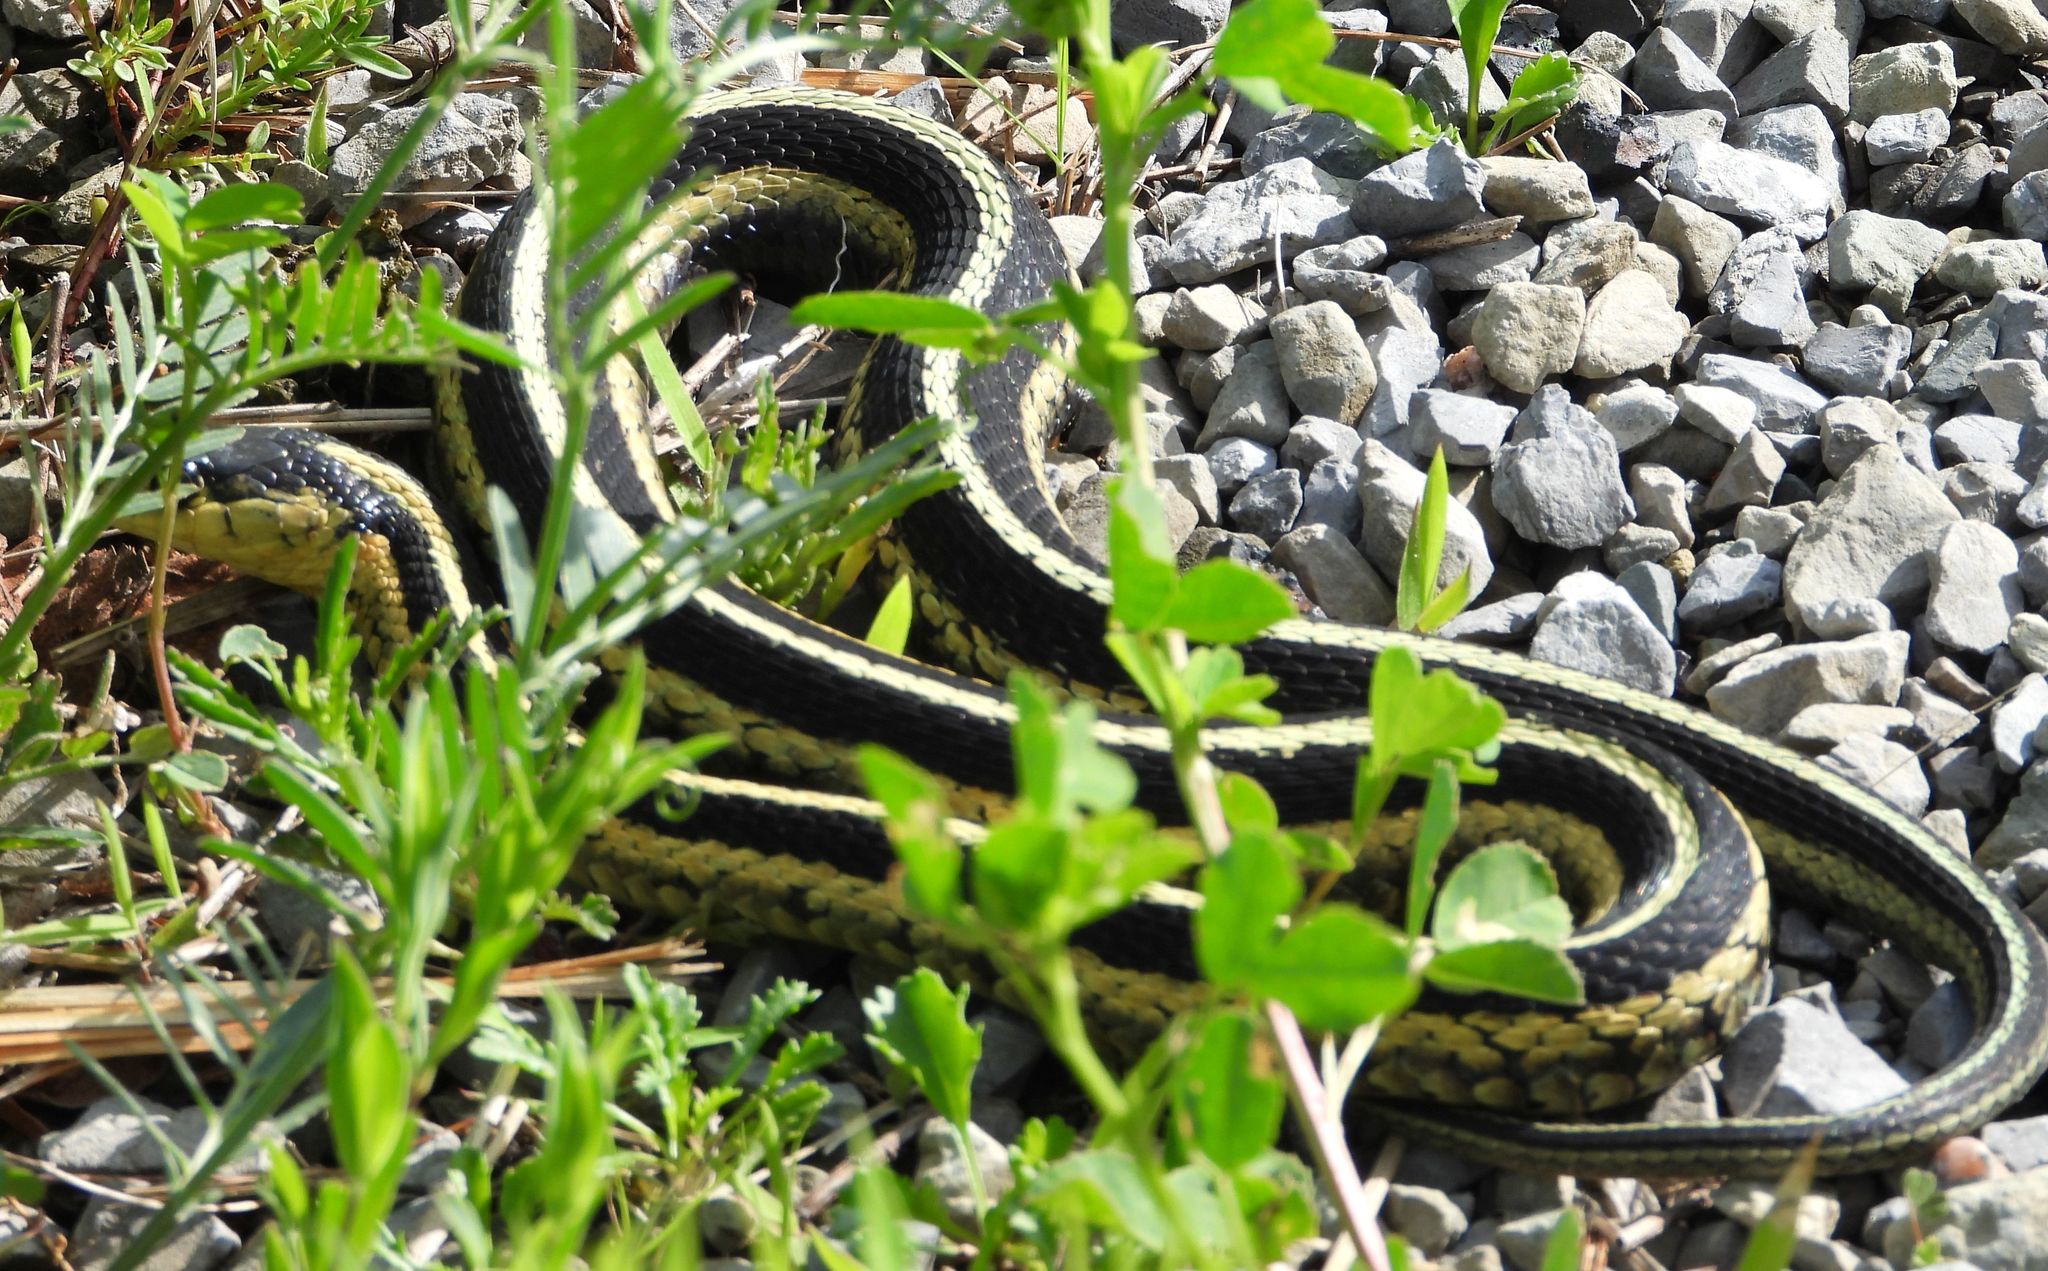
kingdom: Animalia
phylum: Chordata
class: Squamata
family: Colubridae
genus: Thamnophis
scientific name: Thamnophis sirtalis
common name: Common garter snake
